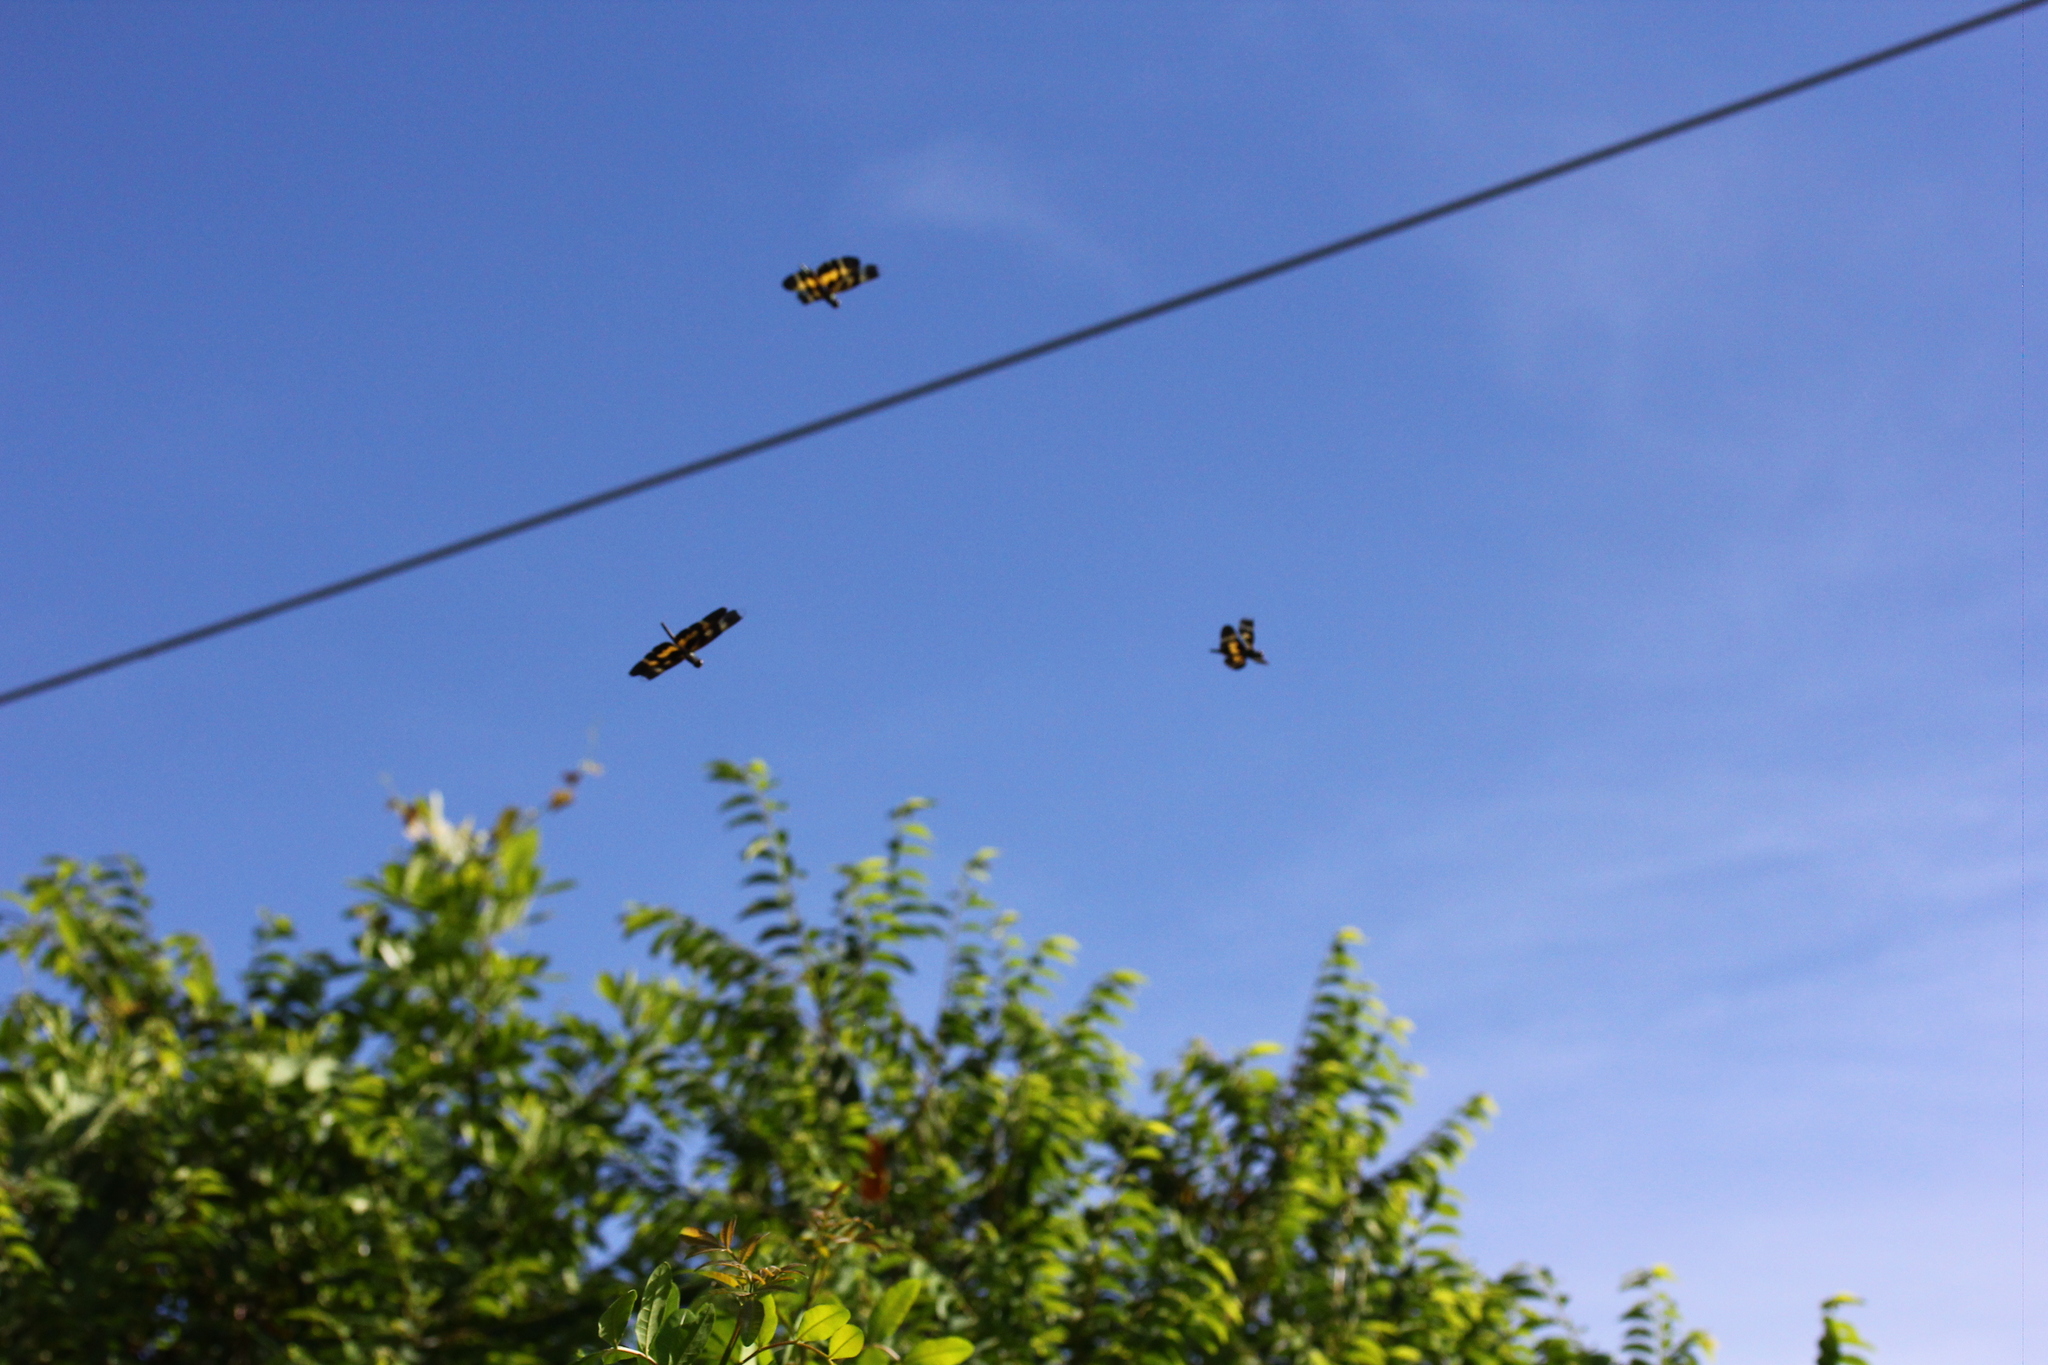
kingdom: Animalia
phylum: Arthropoda
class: Insecta
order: Odonata
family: Libellulidae
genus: Rhyothemis
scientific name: Rhyothemis variegata
